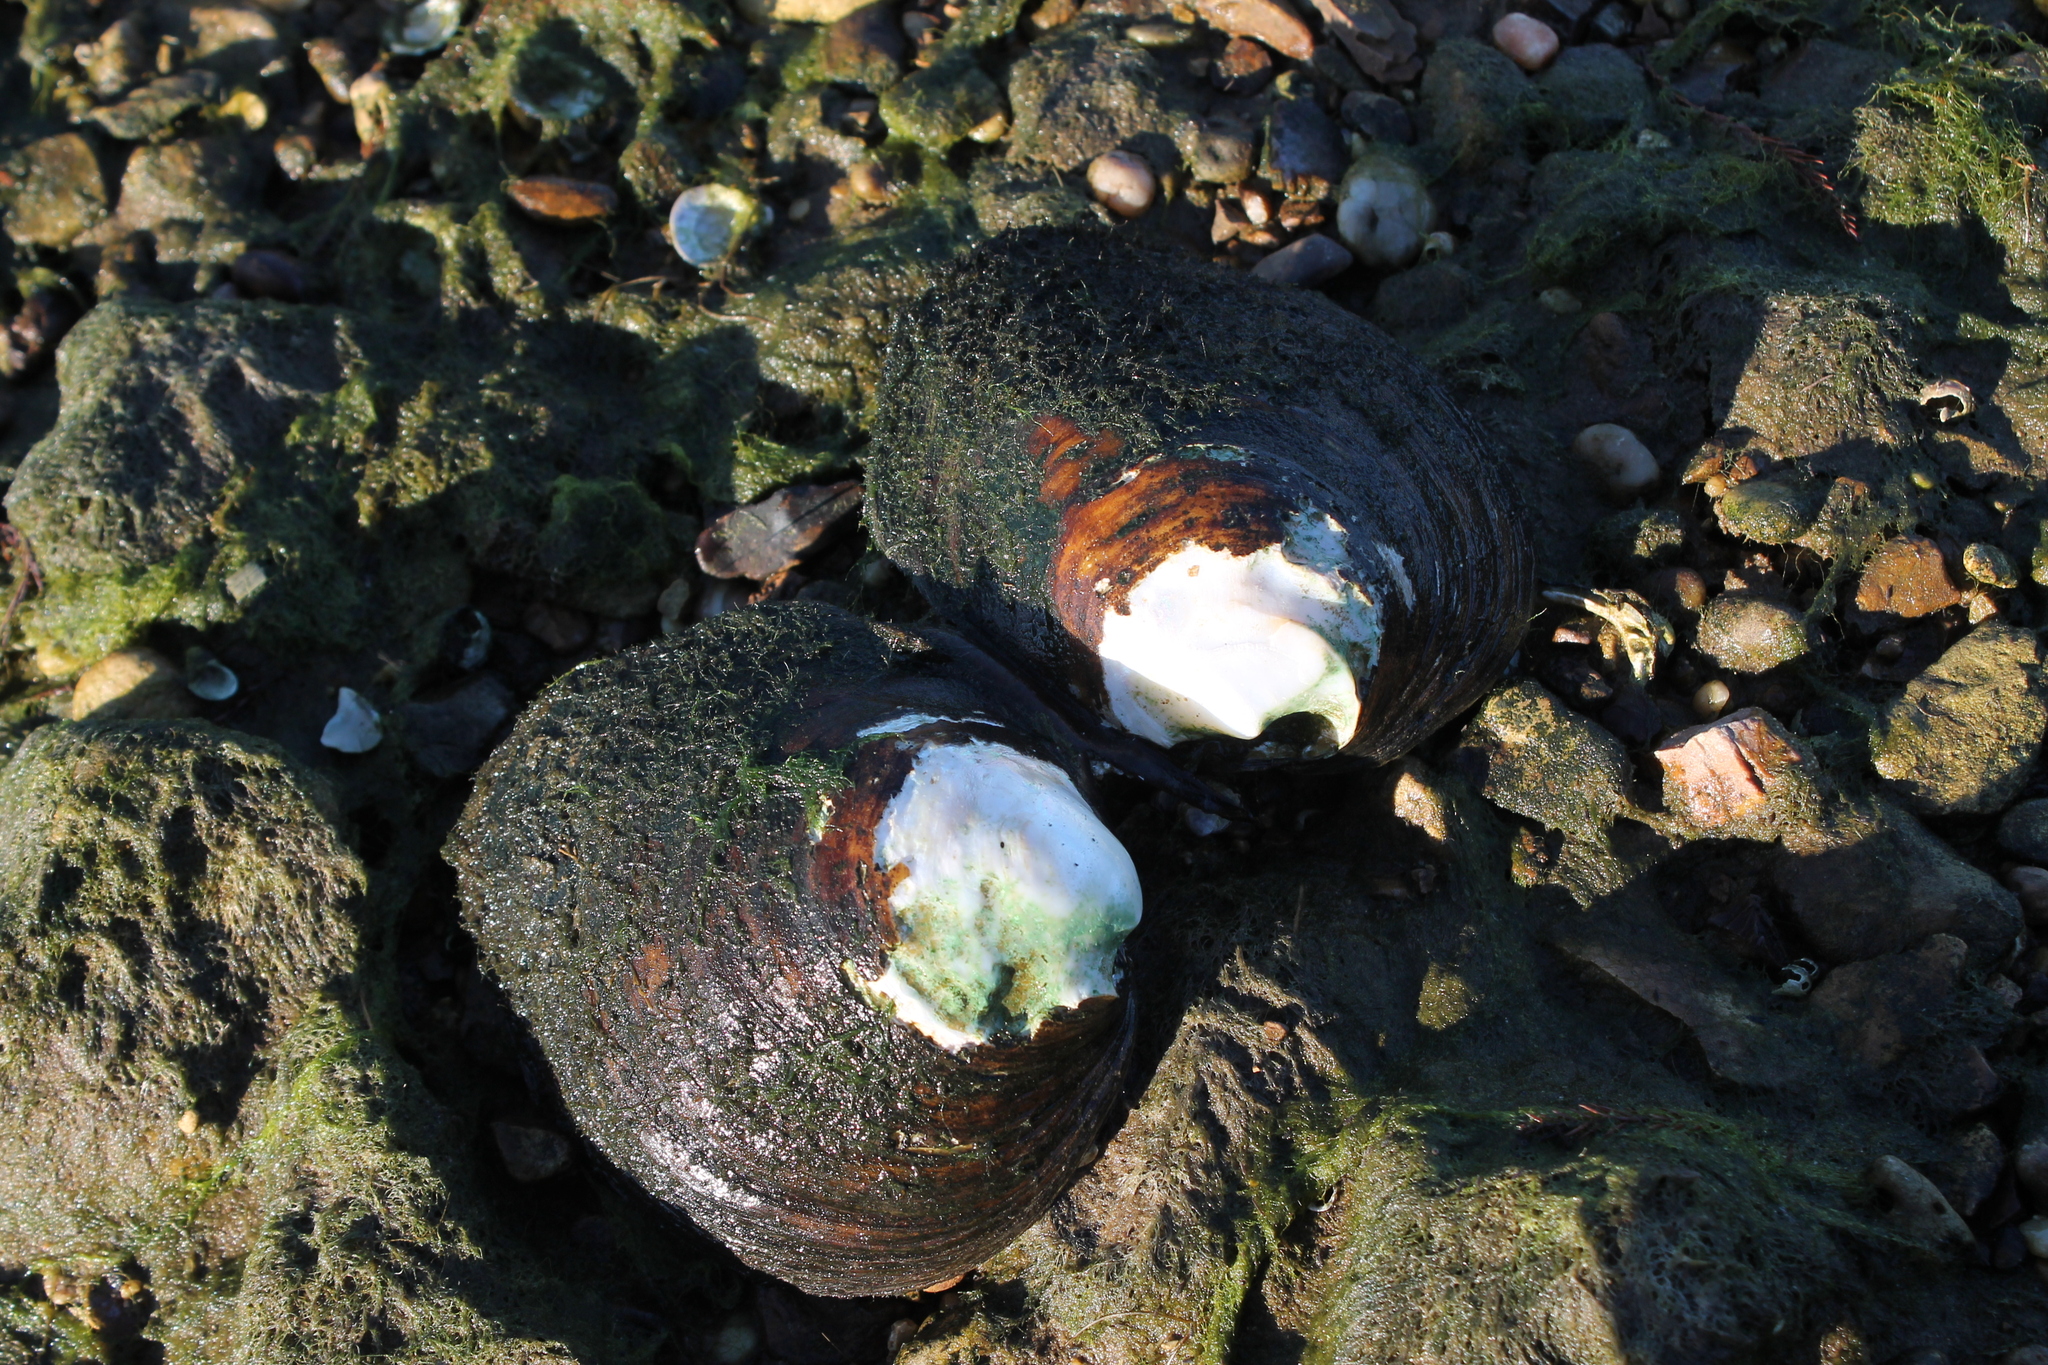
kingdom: Animalia
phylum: Mollusca
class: Bivalvia
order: Unionida
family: Unionidae
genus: Reginaia
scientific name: Reginaia ebenus
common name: Ebonyshell
